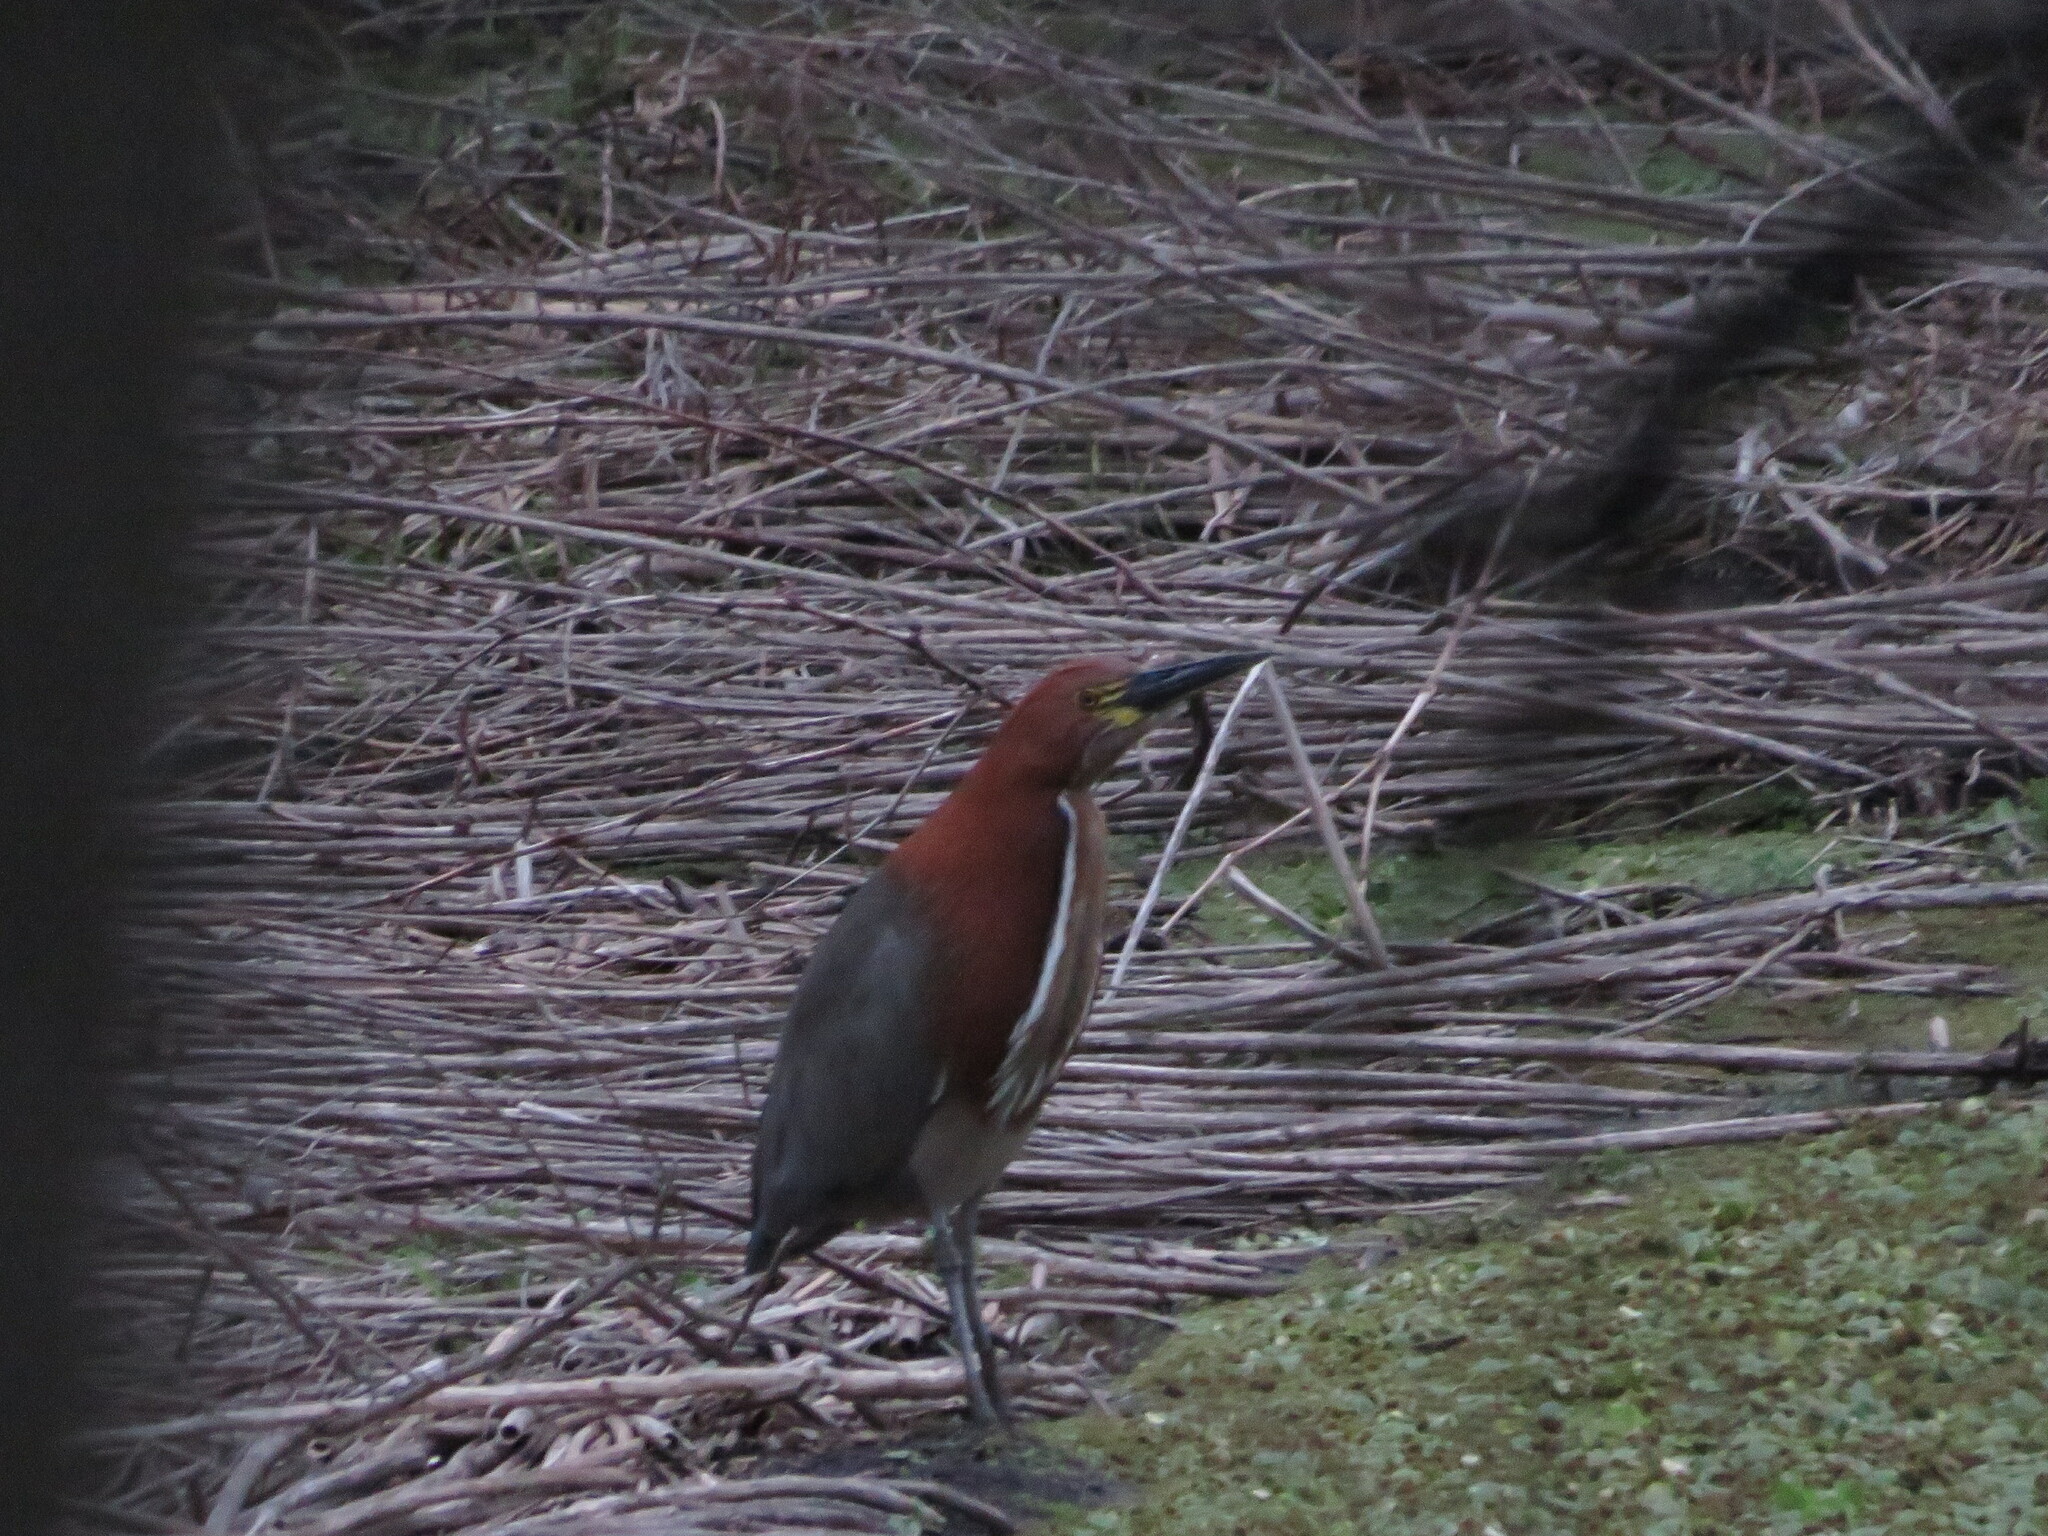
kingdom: Animalia
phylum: Chordata
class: Aves
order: Pelecaniformes
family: Ardeidae
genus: Tigrisoma
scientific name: Tigrisoma lineatum
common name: Rufescent tiger-heron
